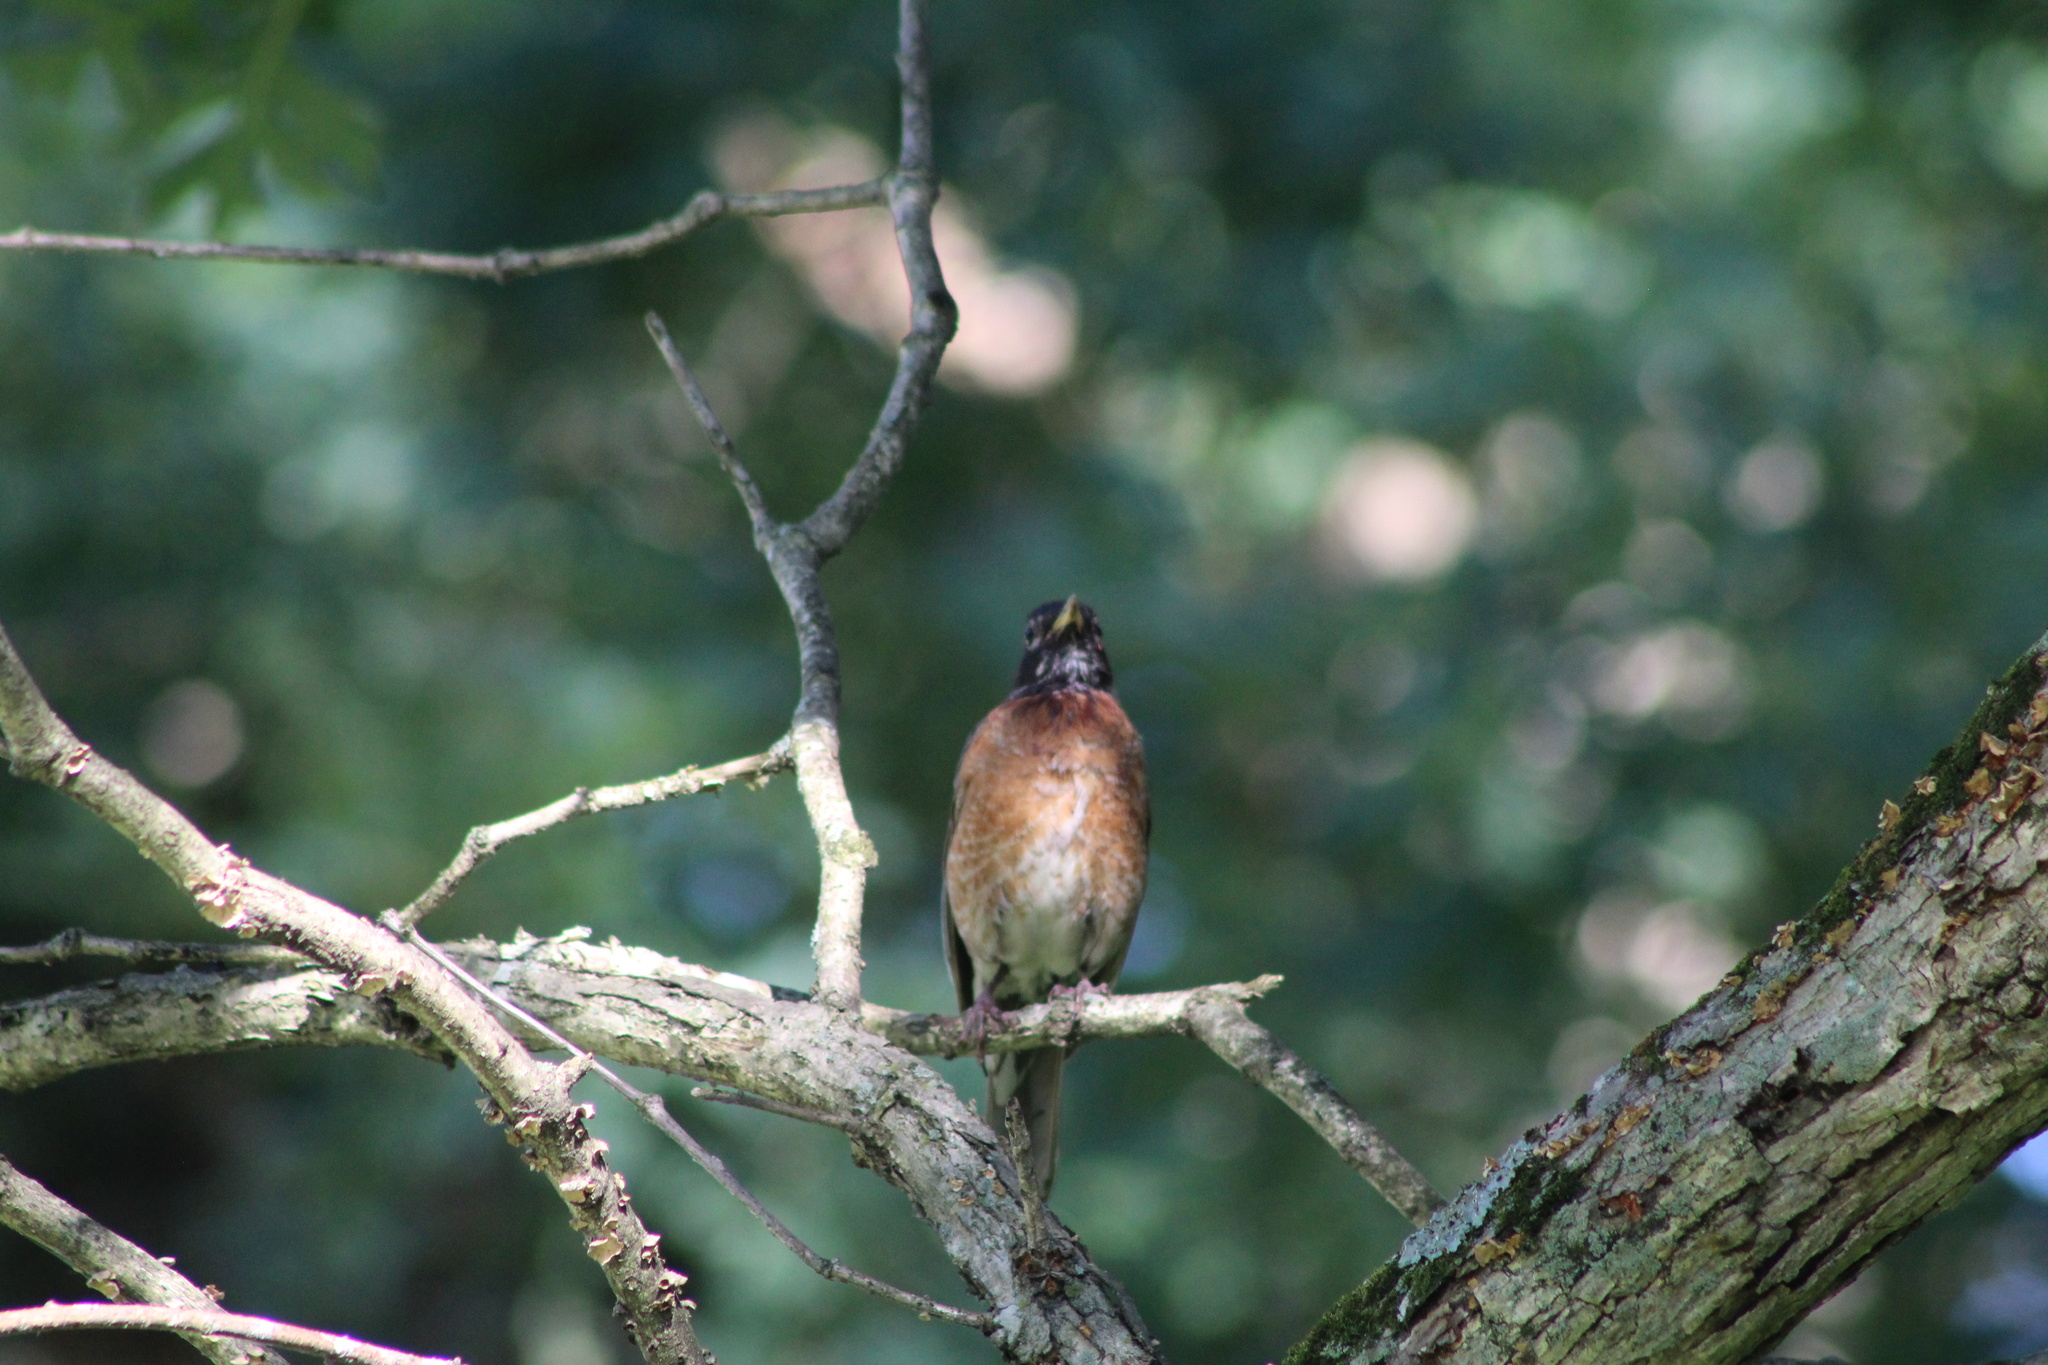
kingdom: Animalia
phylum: Chordata
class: Aves
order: Passeriformes
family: Turdidae
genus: Turdus
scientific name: Turdus migratorius
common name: American robin
